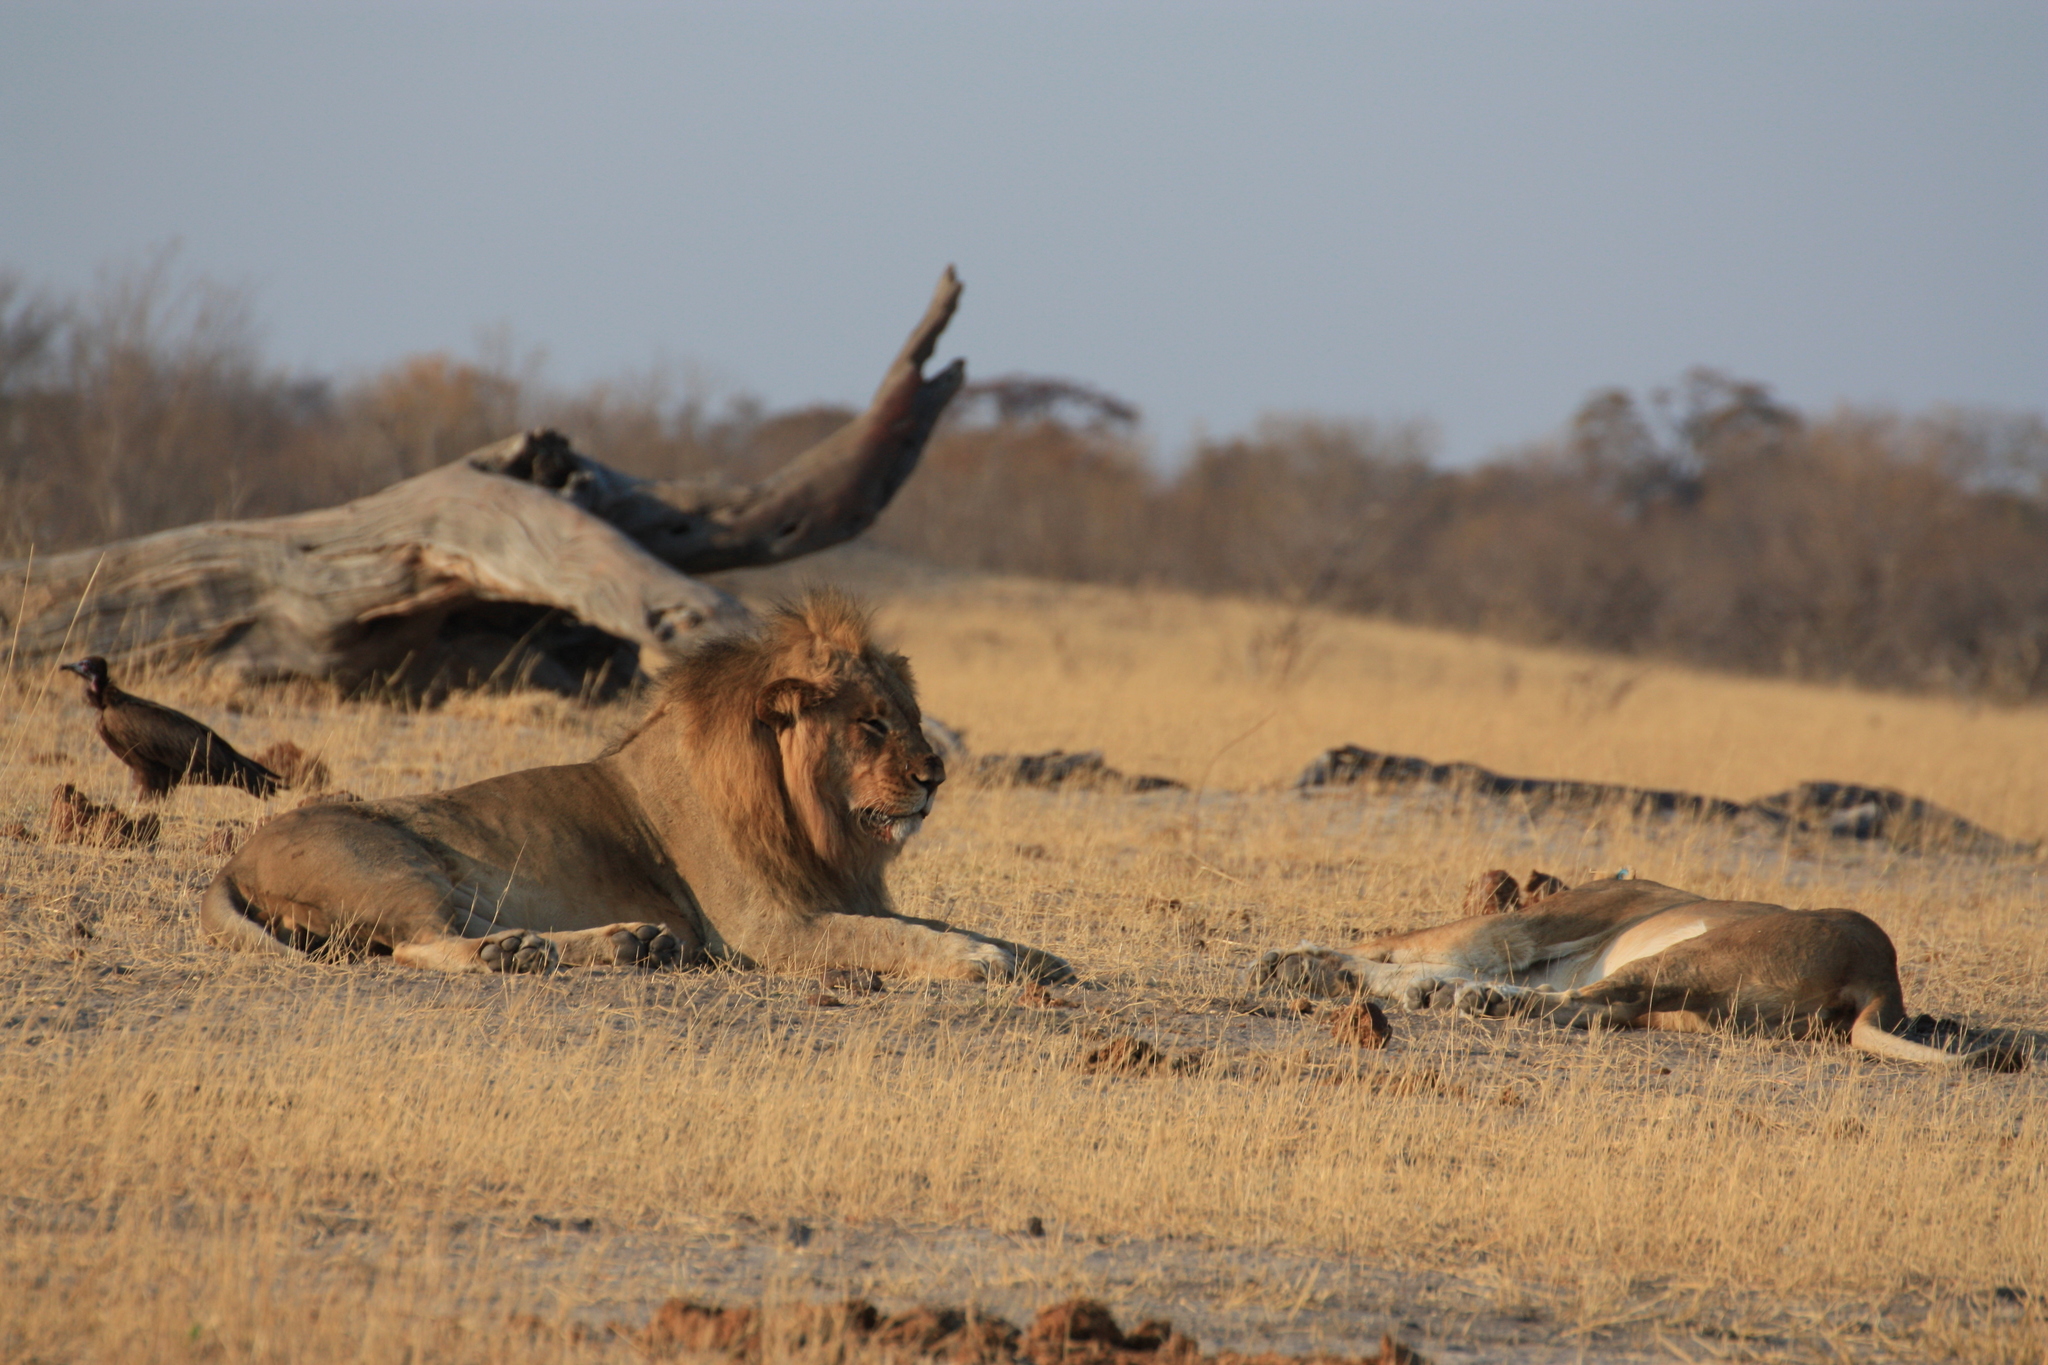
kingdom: Animalia
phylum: Chordata
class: Mammalia
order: Carnivora
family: Felidae
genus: Panthera
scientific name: Panthera leo
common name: Lion
